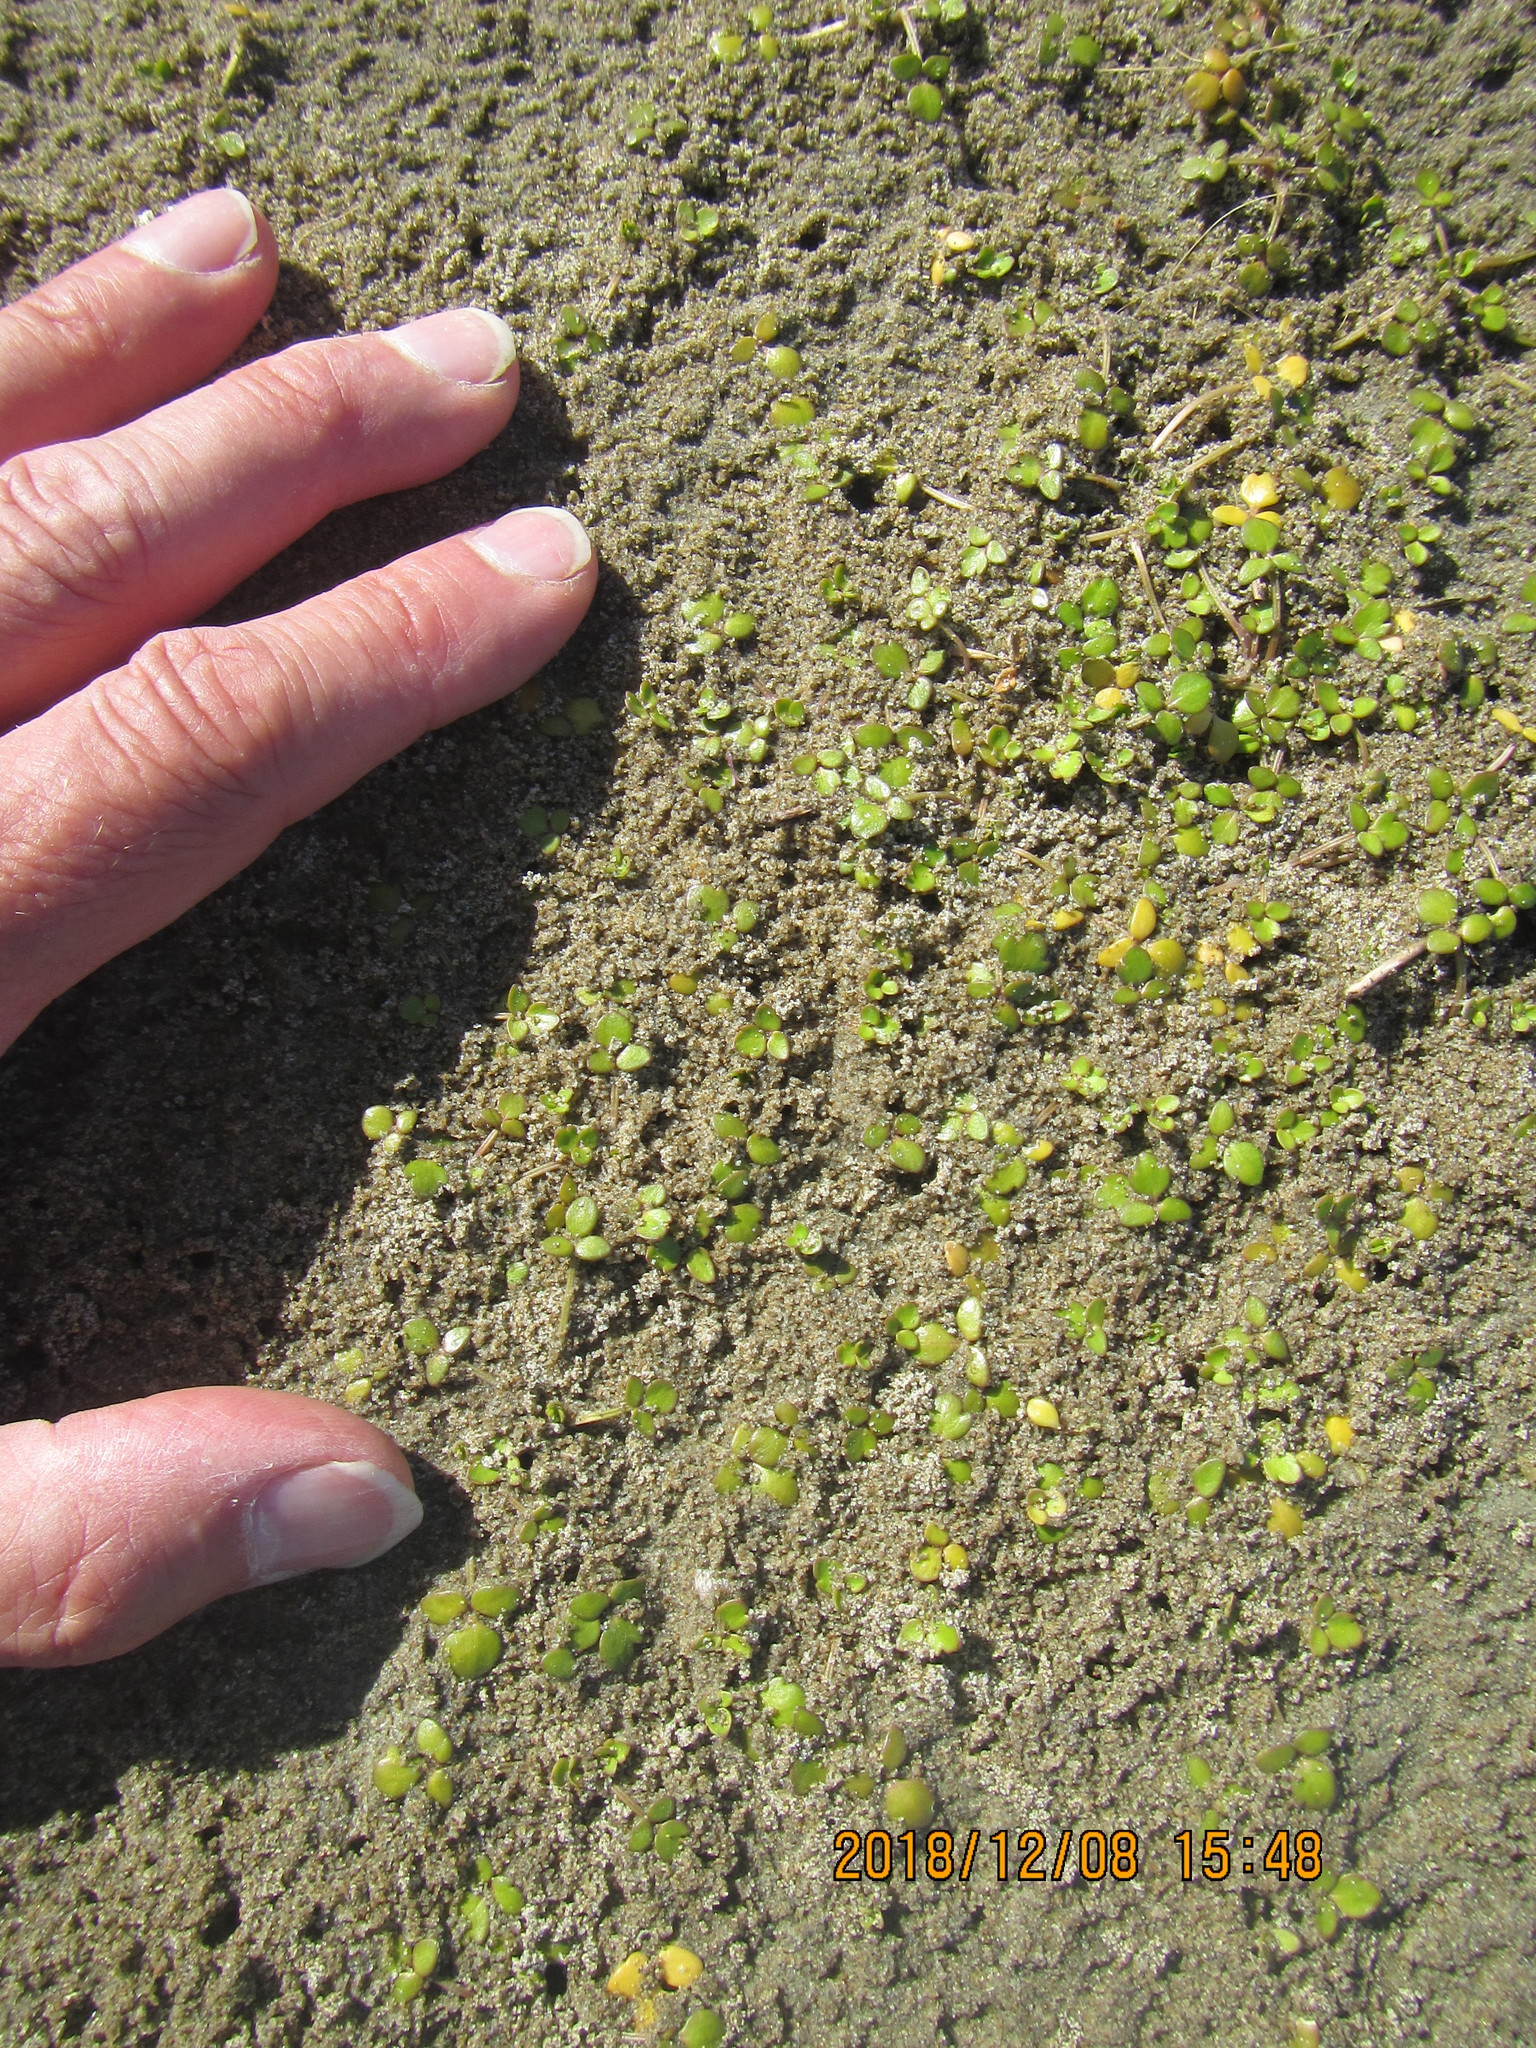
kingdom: Plantae
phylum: Tracheophyta
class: Magnoliopsida
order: Ranunculales
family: Ranunculaceae
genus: Ranunculus
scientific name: Ranunculus acaulis
